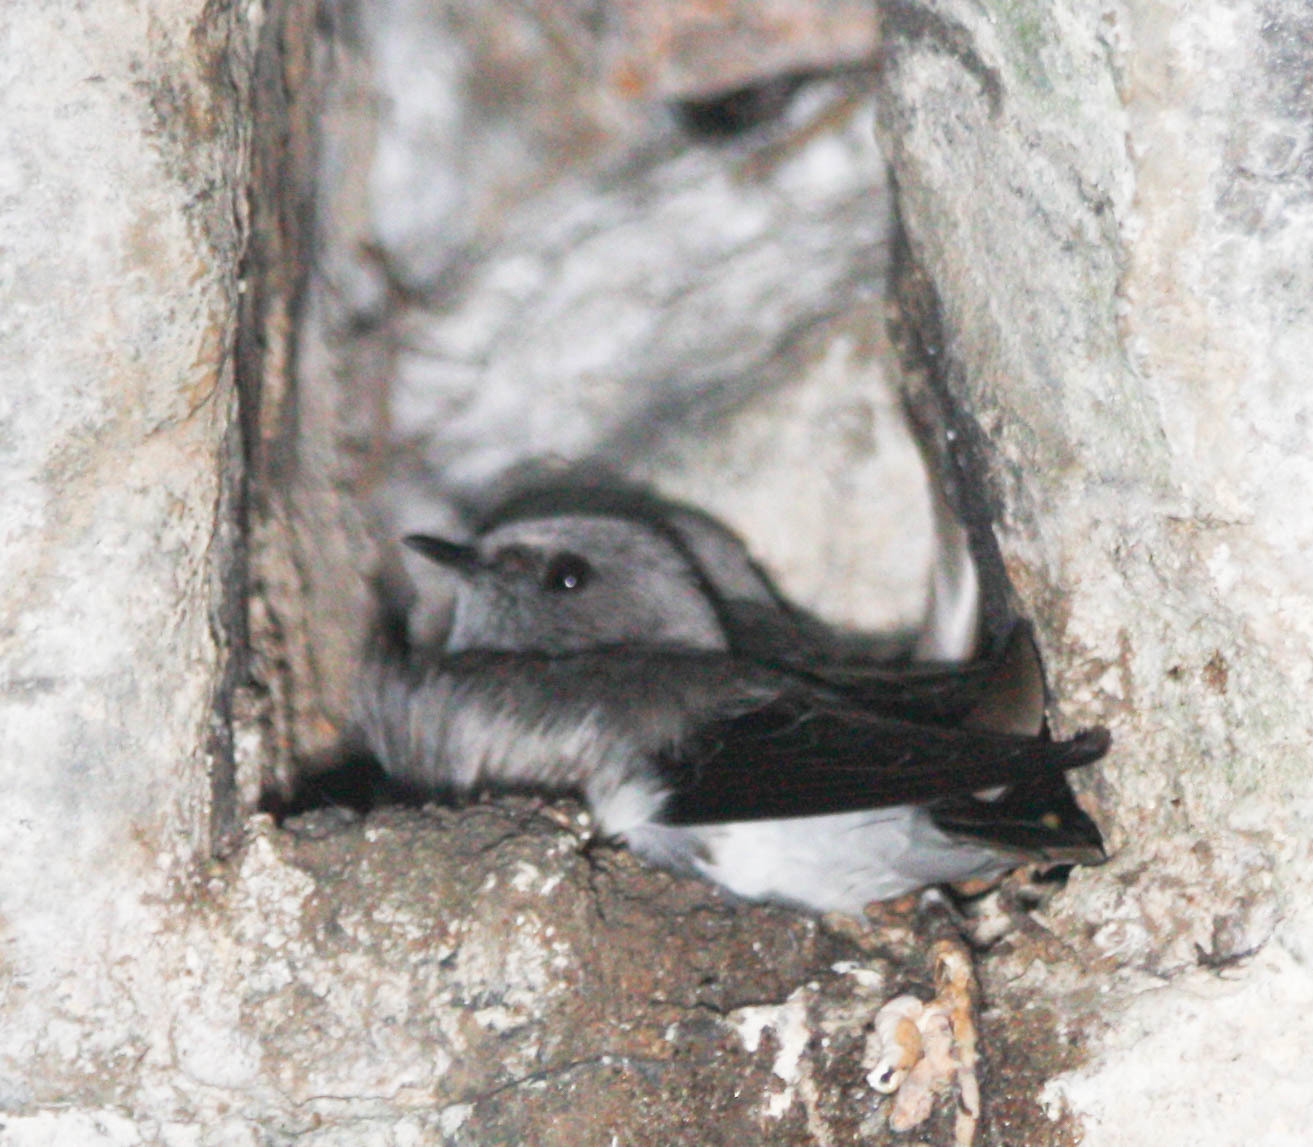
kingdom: Animalia
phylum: Chordata
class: Aves
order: Passeriformes
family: Hirundinidae
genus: Phedina
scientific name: Phedina borbonica
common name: Mascarene martin
